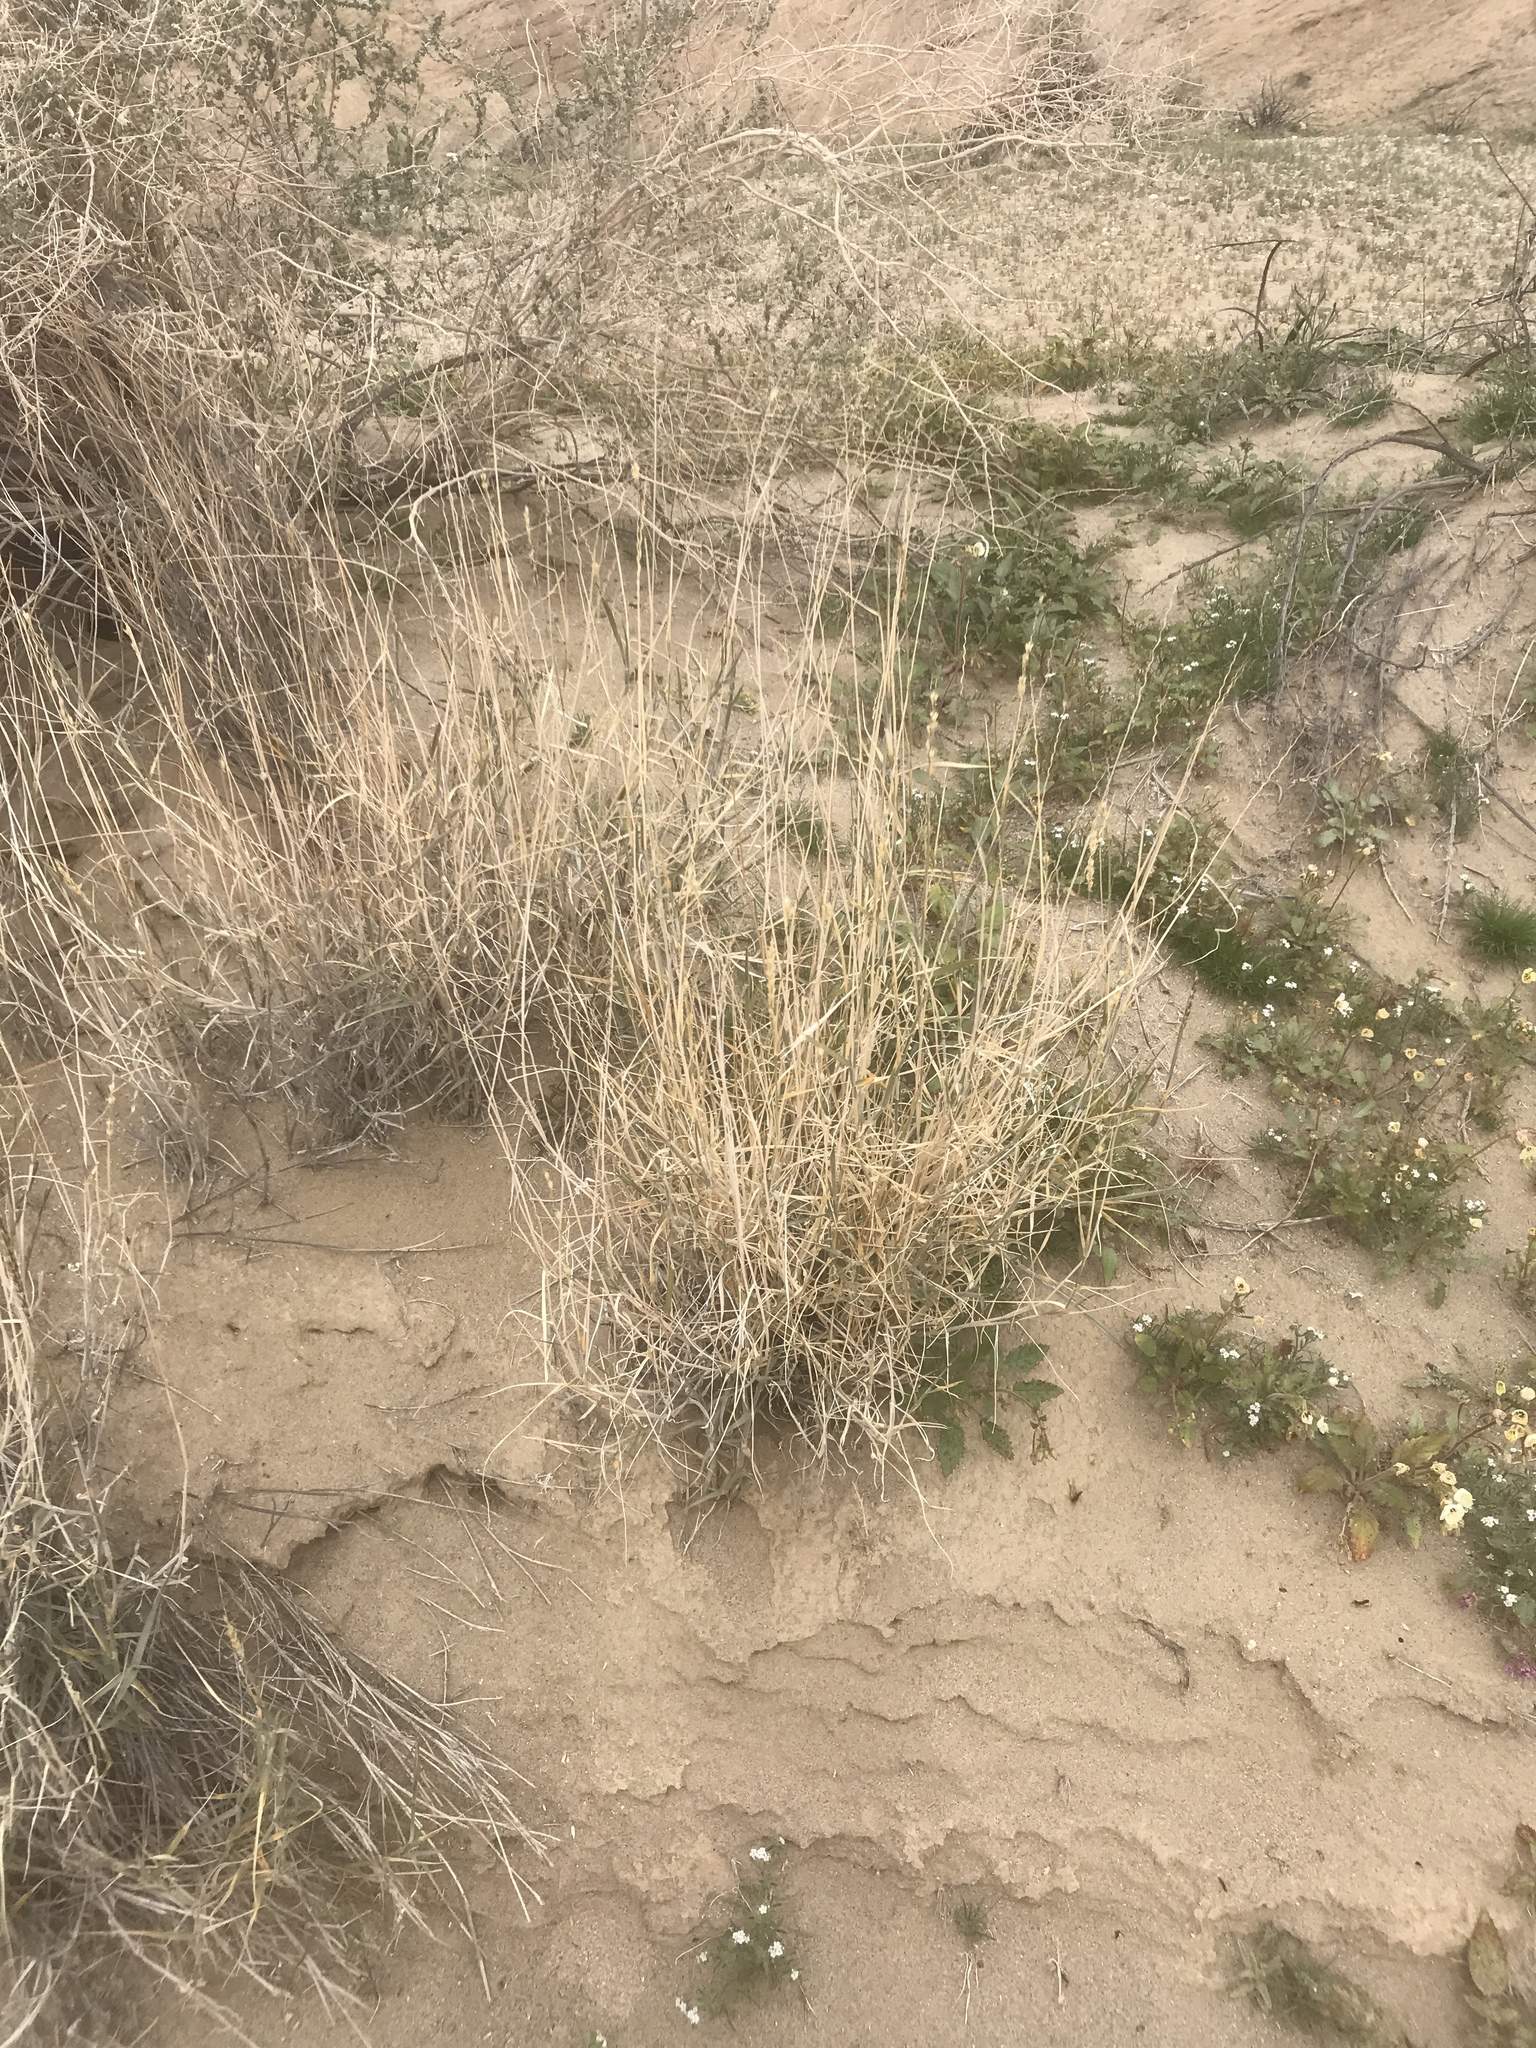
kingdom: Plantae
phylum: Tracheophyta
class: Liliopsida
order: Poales
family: Poaceae
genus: Hilaria
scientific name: Hilaria rigida
